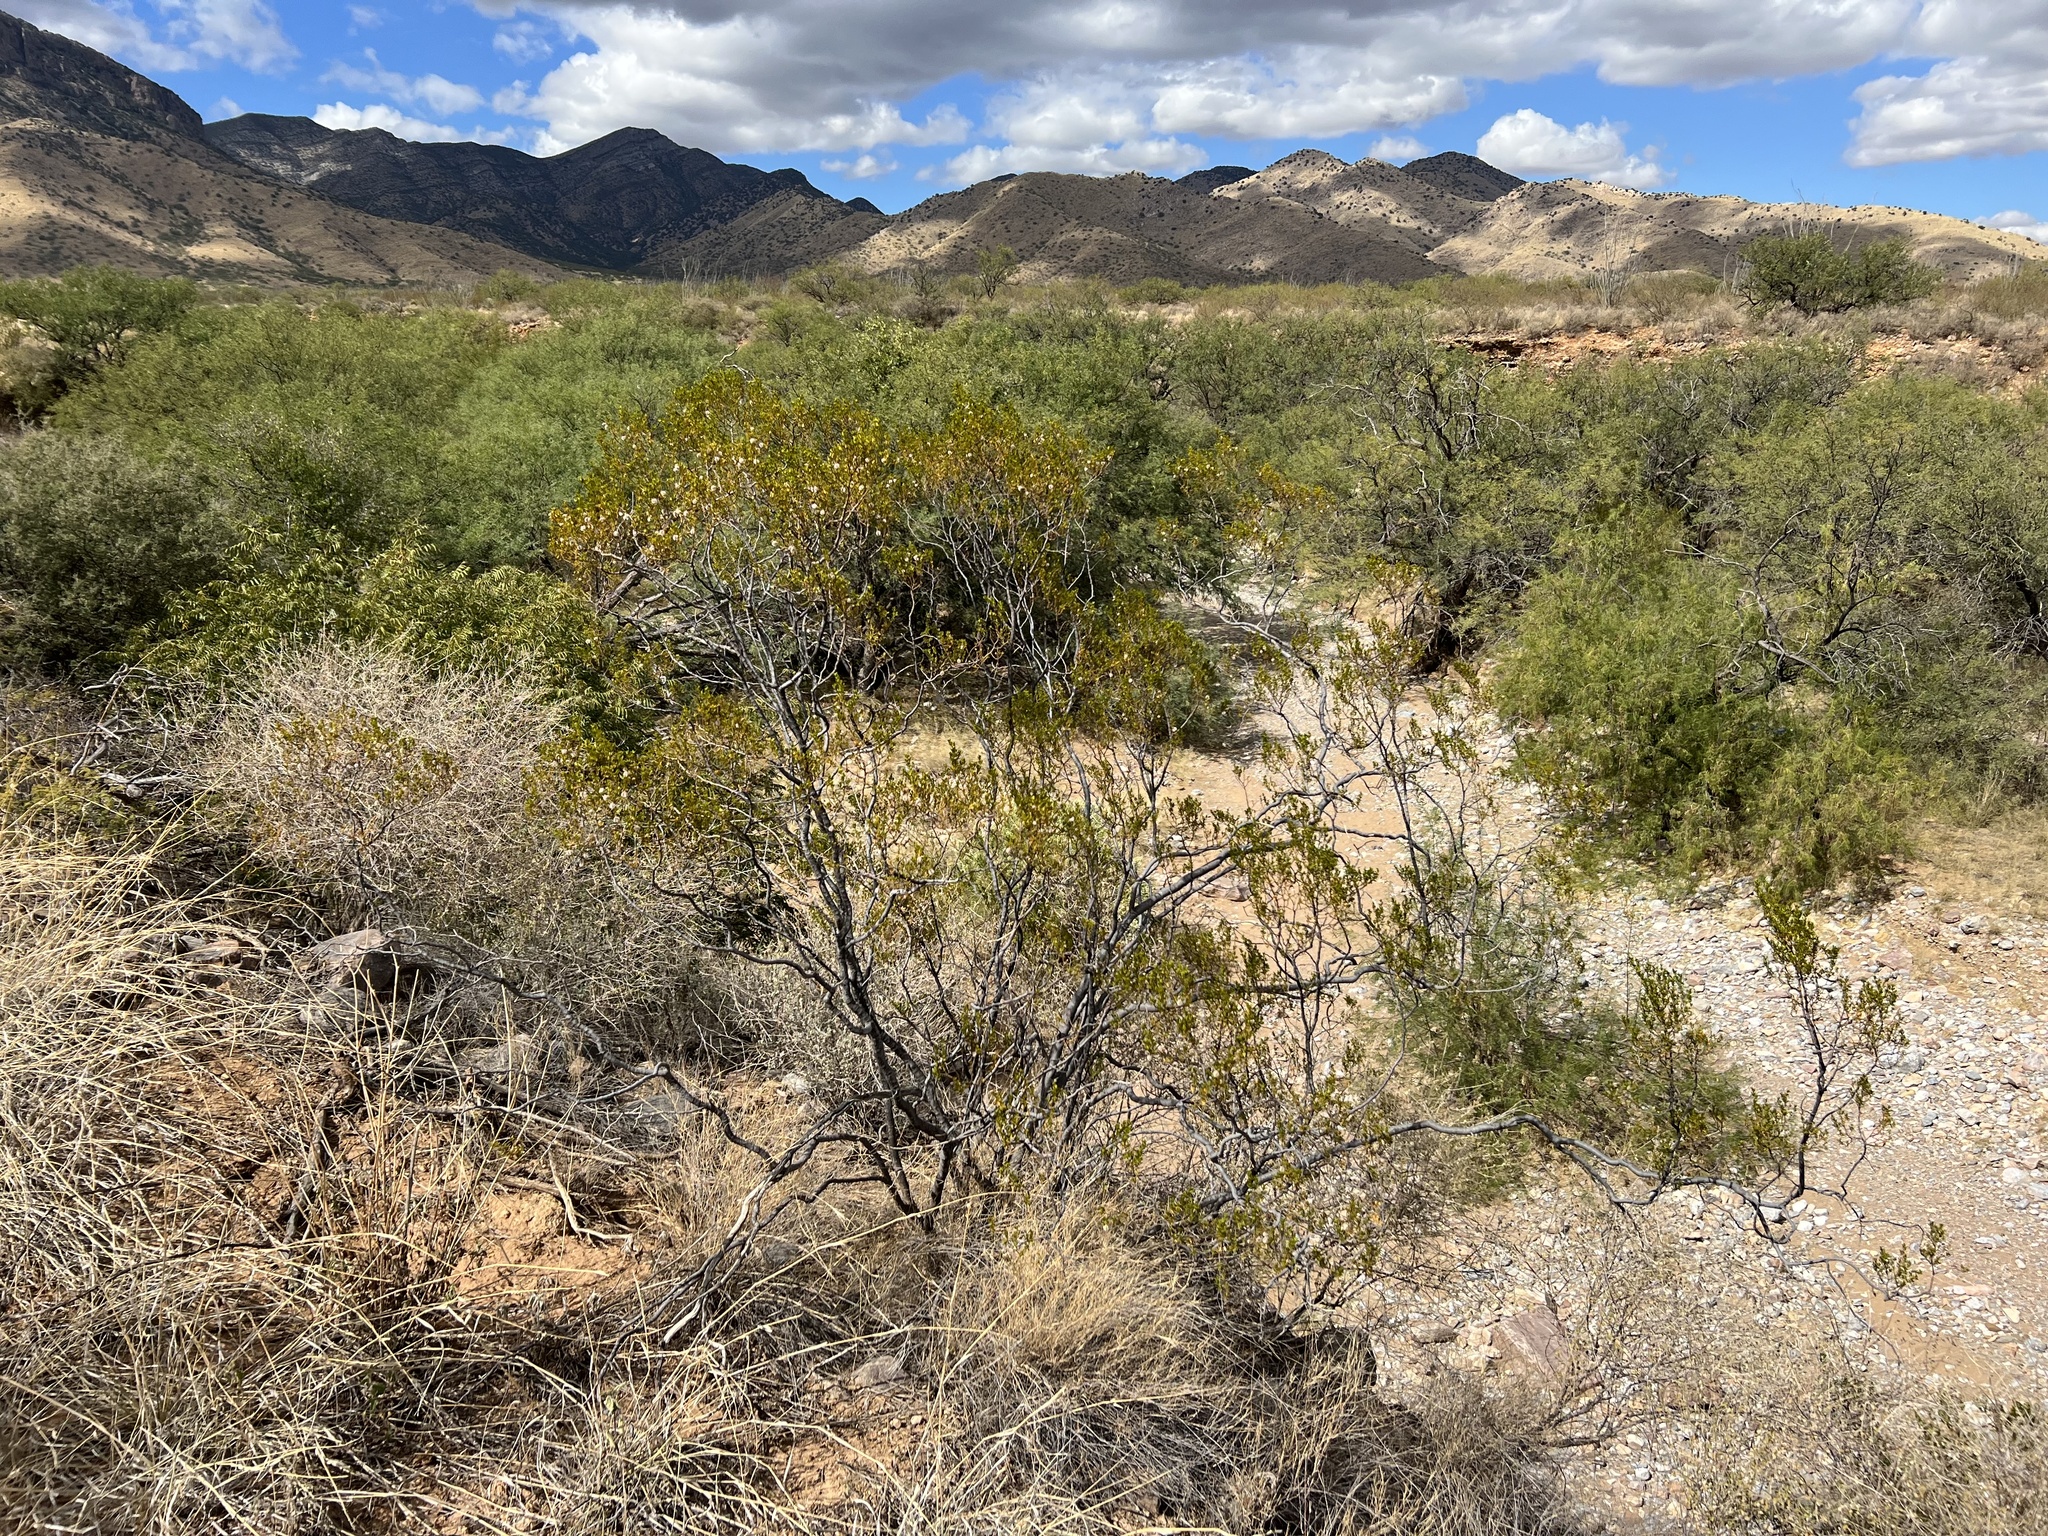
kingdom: Plantae
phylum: Tracheophyta
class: Magnoliopsida
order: Zygophyllales
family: Zygophyllaceae
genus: Larrea
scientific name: Larrea tridentata
